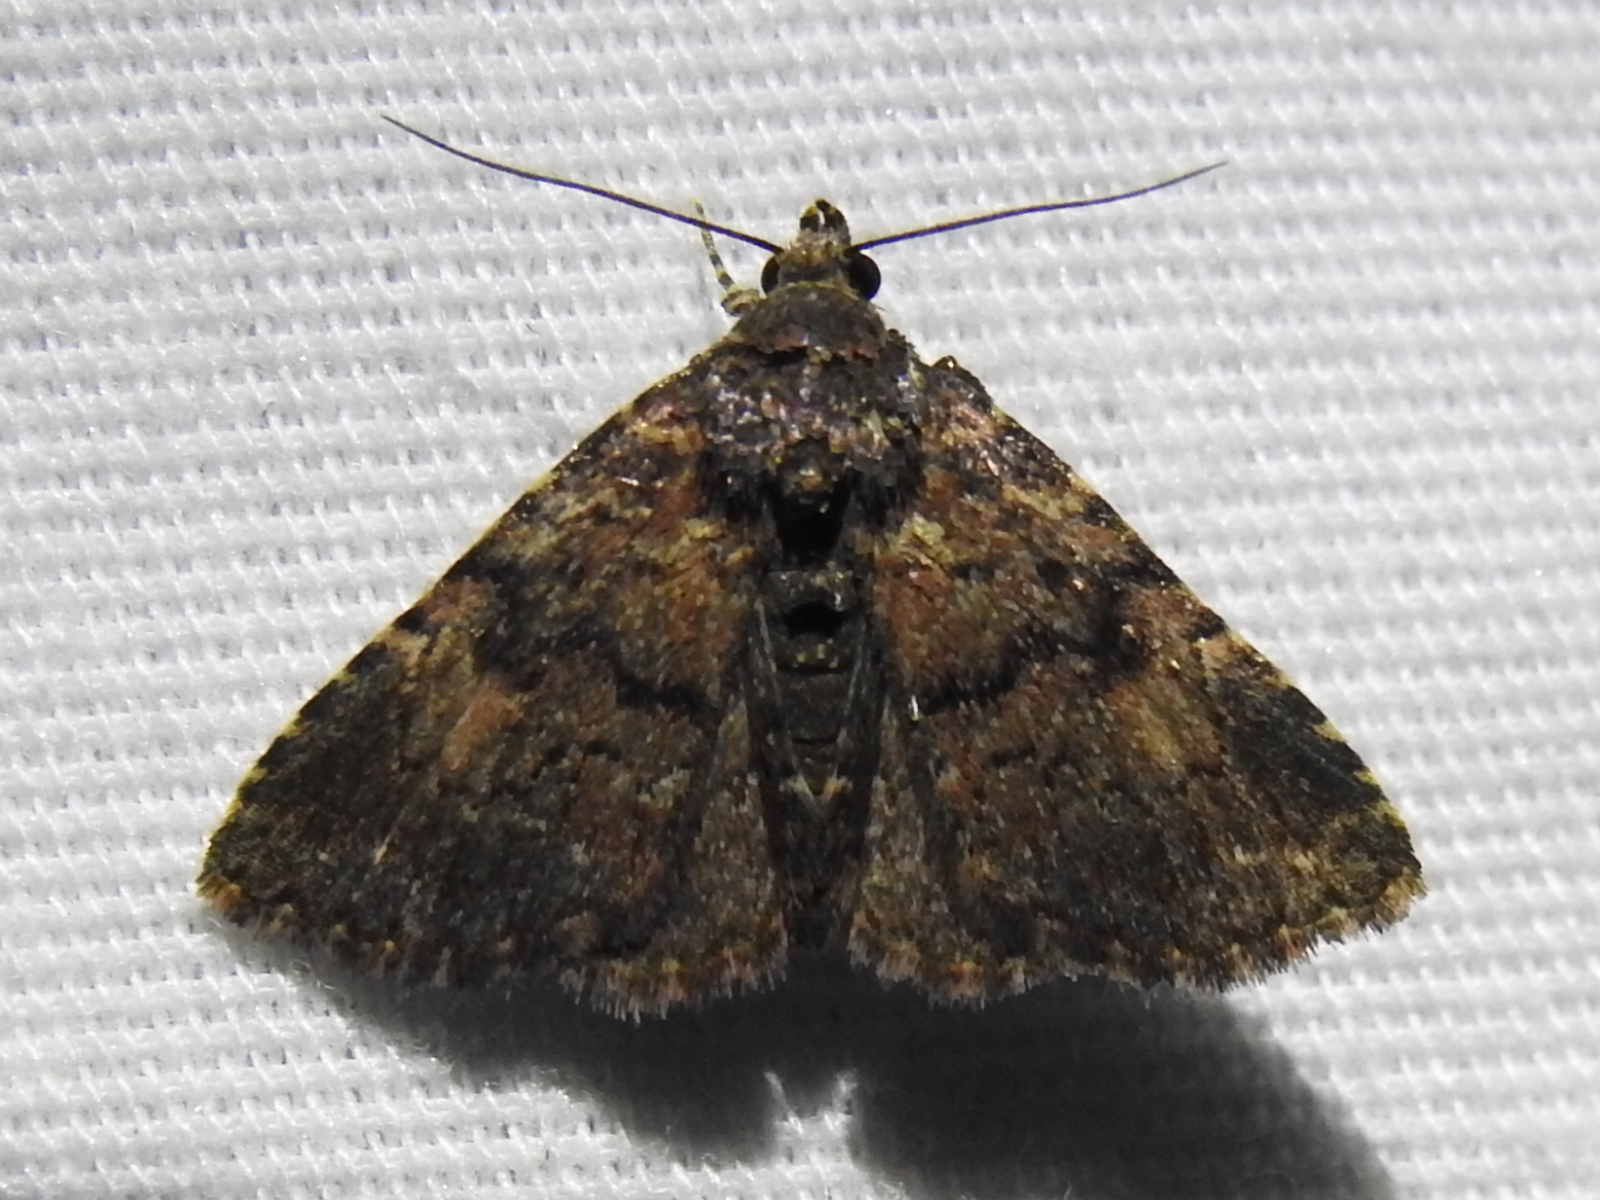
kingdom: Animalia
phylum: Arthropoda
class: Insecta
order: Lepidoptera
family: Erebidae
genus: Metalectra
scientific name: Metalectra miserulata
